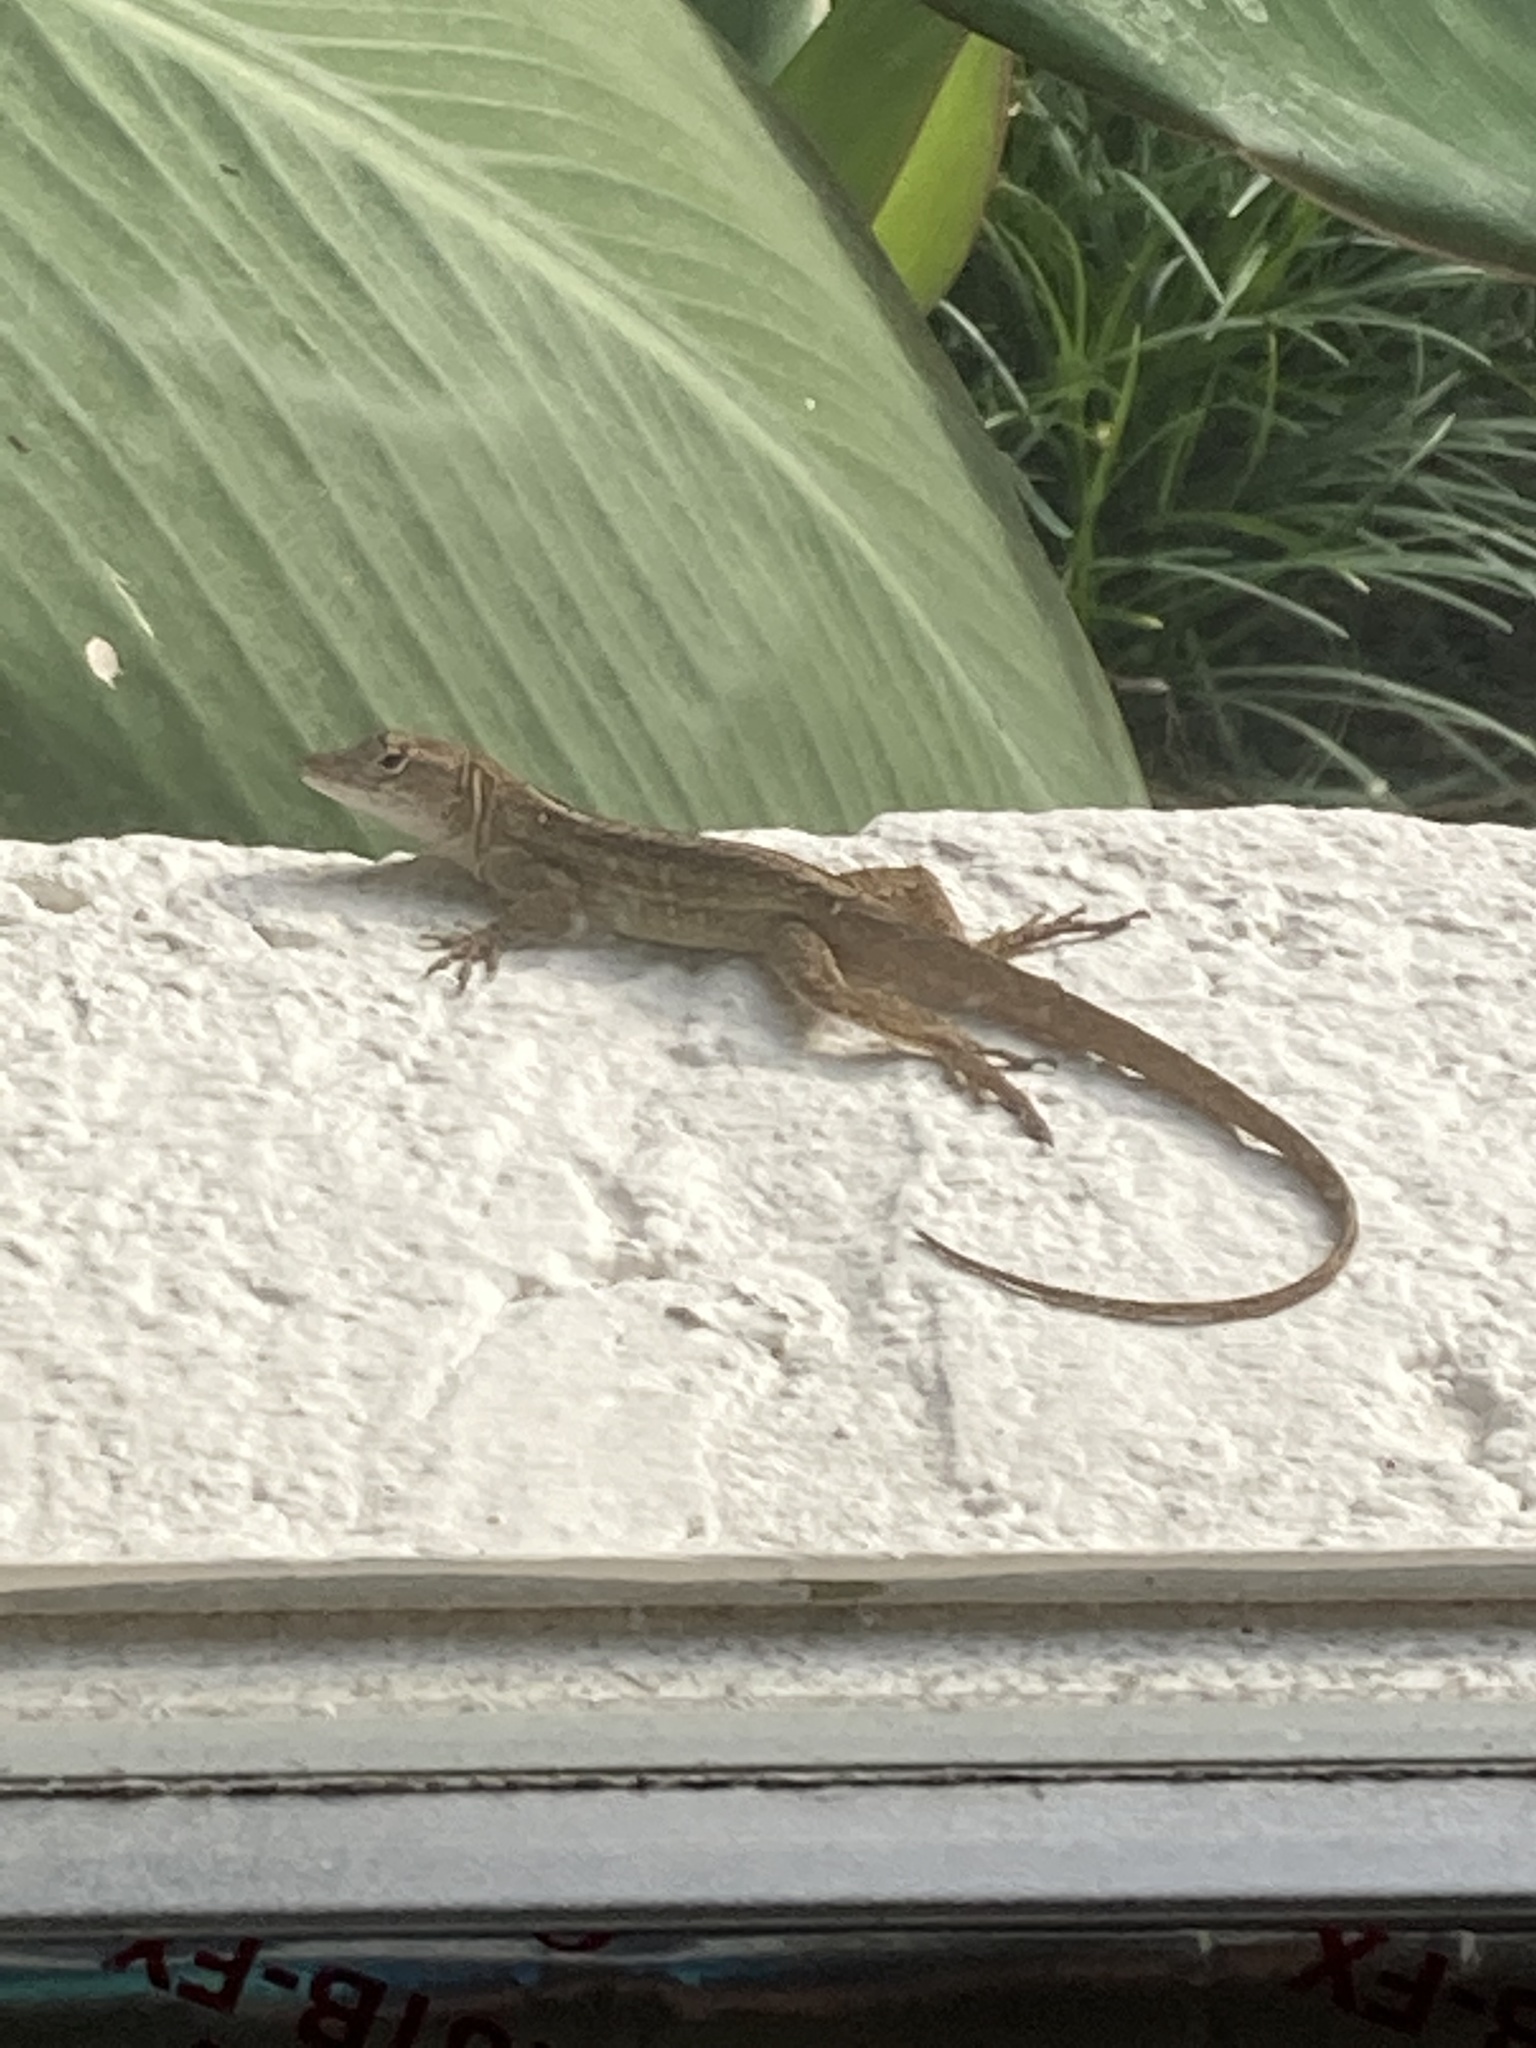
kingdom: Animalia
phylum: Chordata
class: Squamata
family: Dactyloidae
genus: Anolis
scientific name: Anolis sagrei
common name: Brown anole
